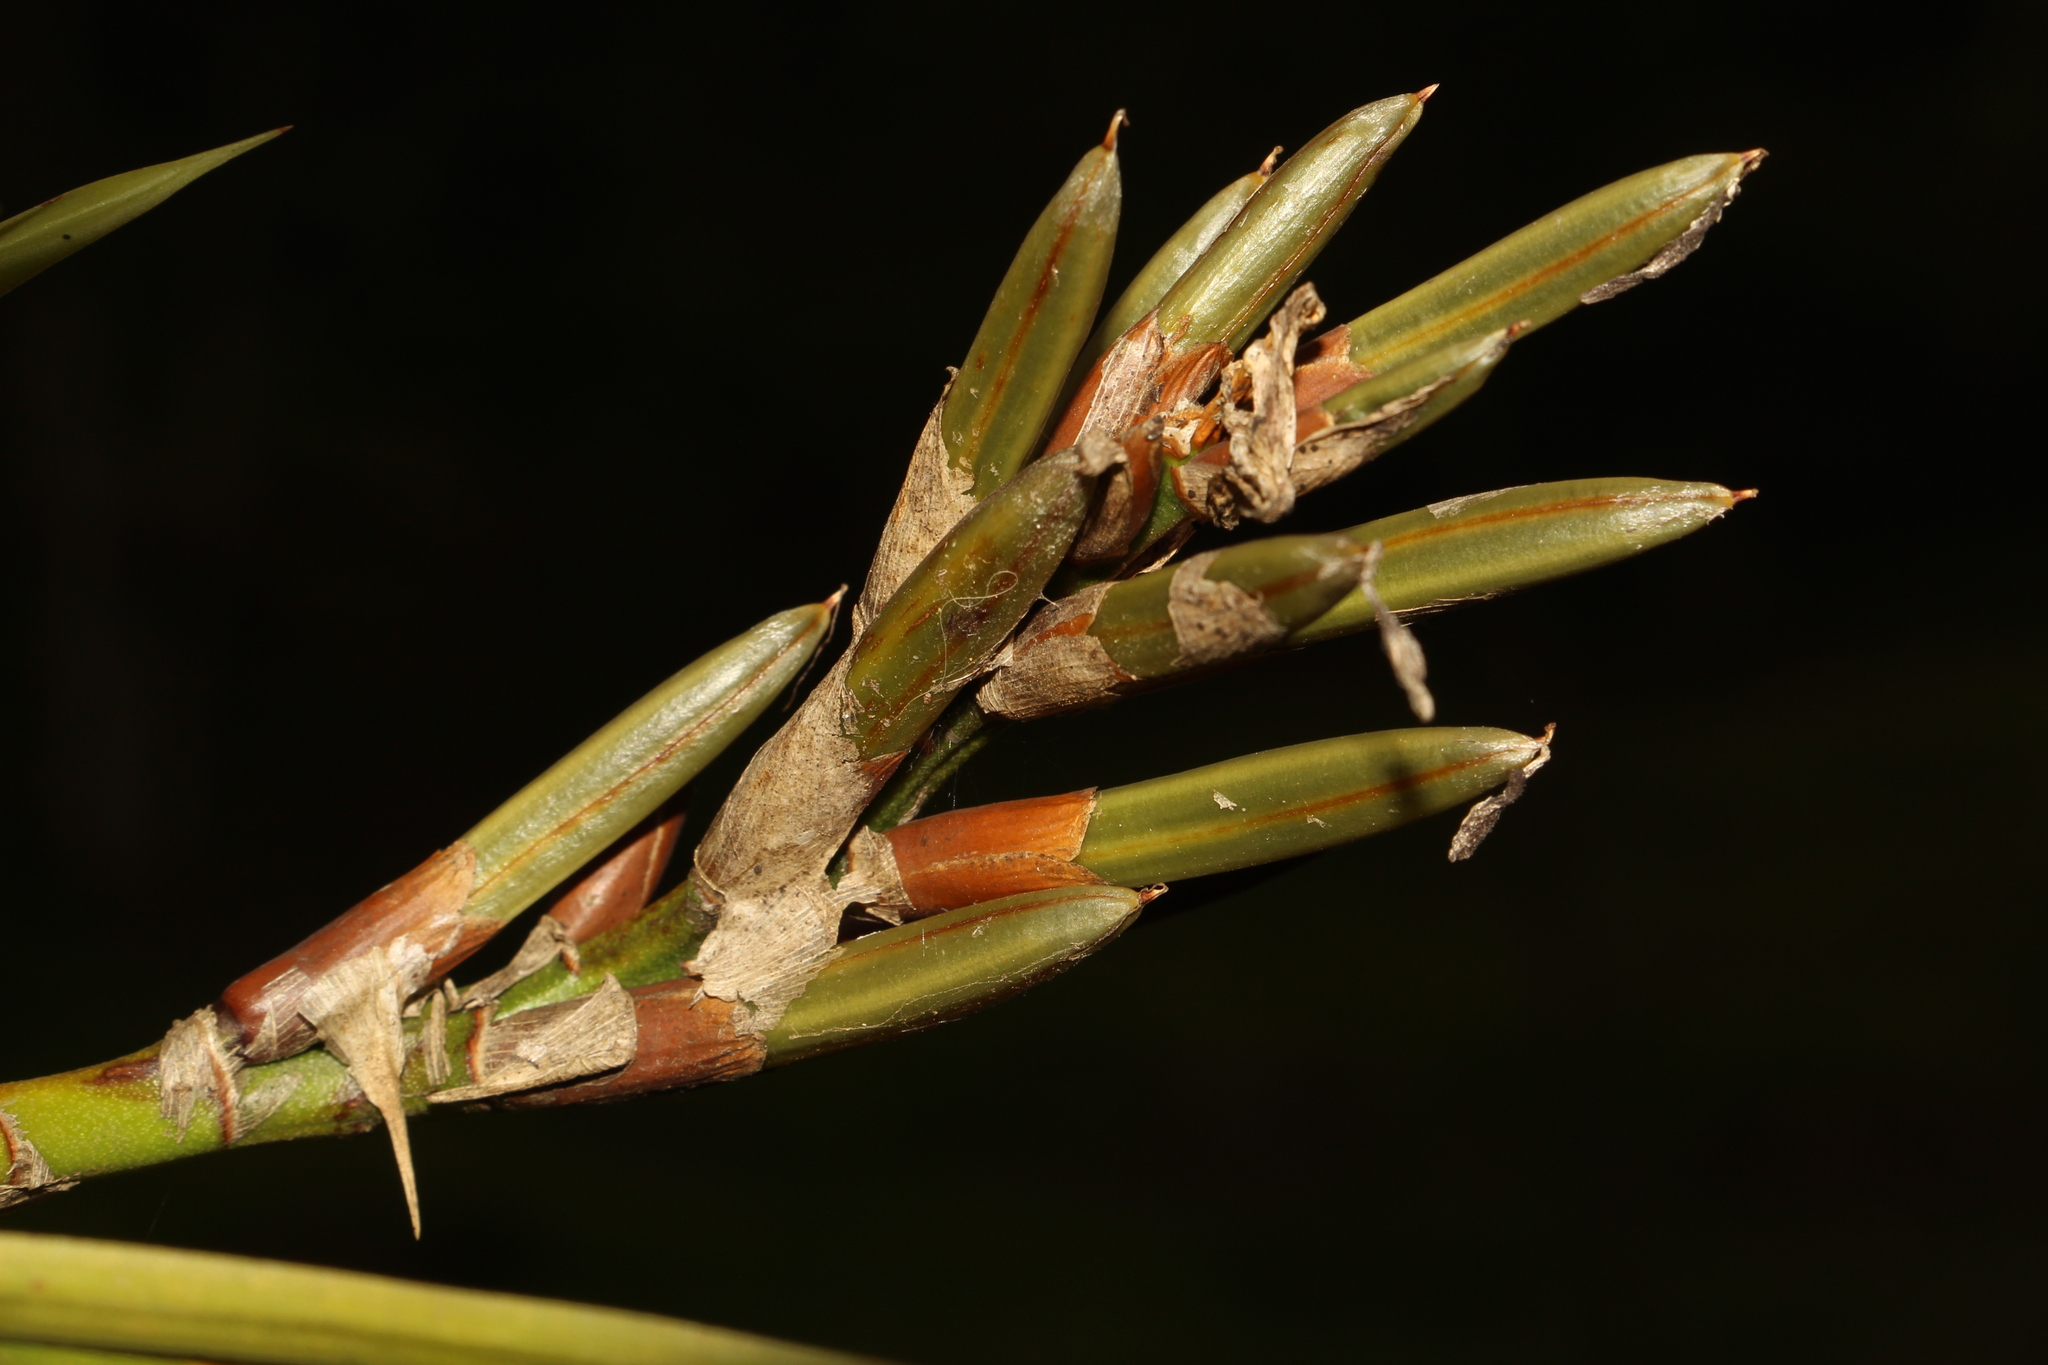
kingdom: Plantae
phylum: Tracheophyta
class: Liliopsida
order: Poales
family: Bromeliaceae
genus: Guzmania
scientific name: Guzmania monostachia
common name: West indian tufted airplant
